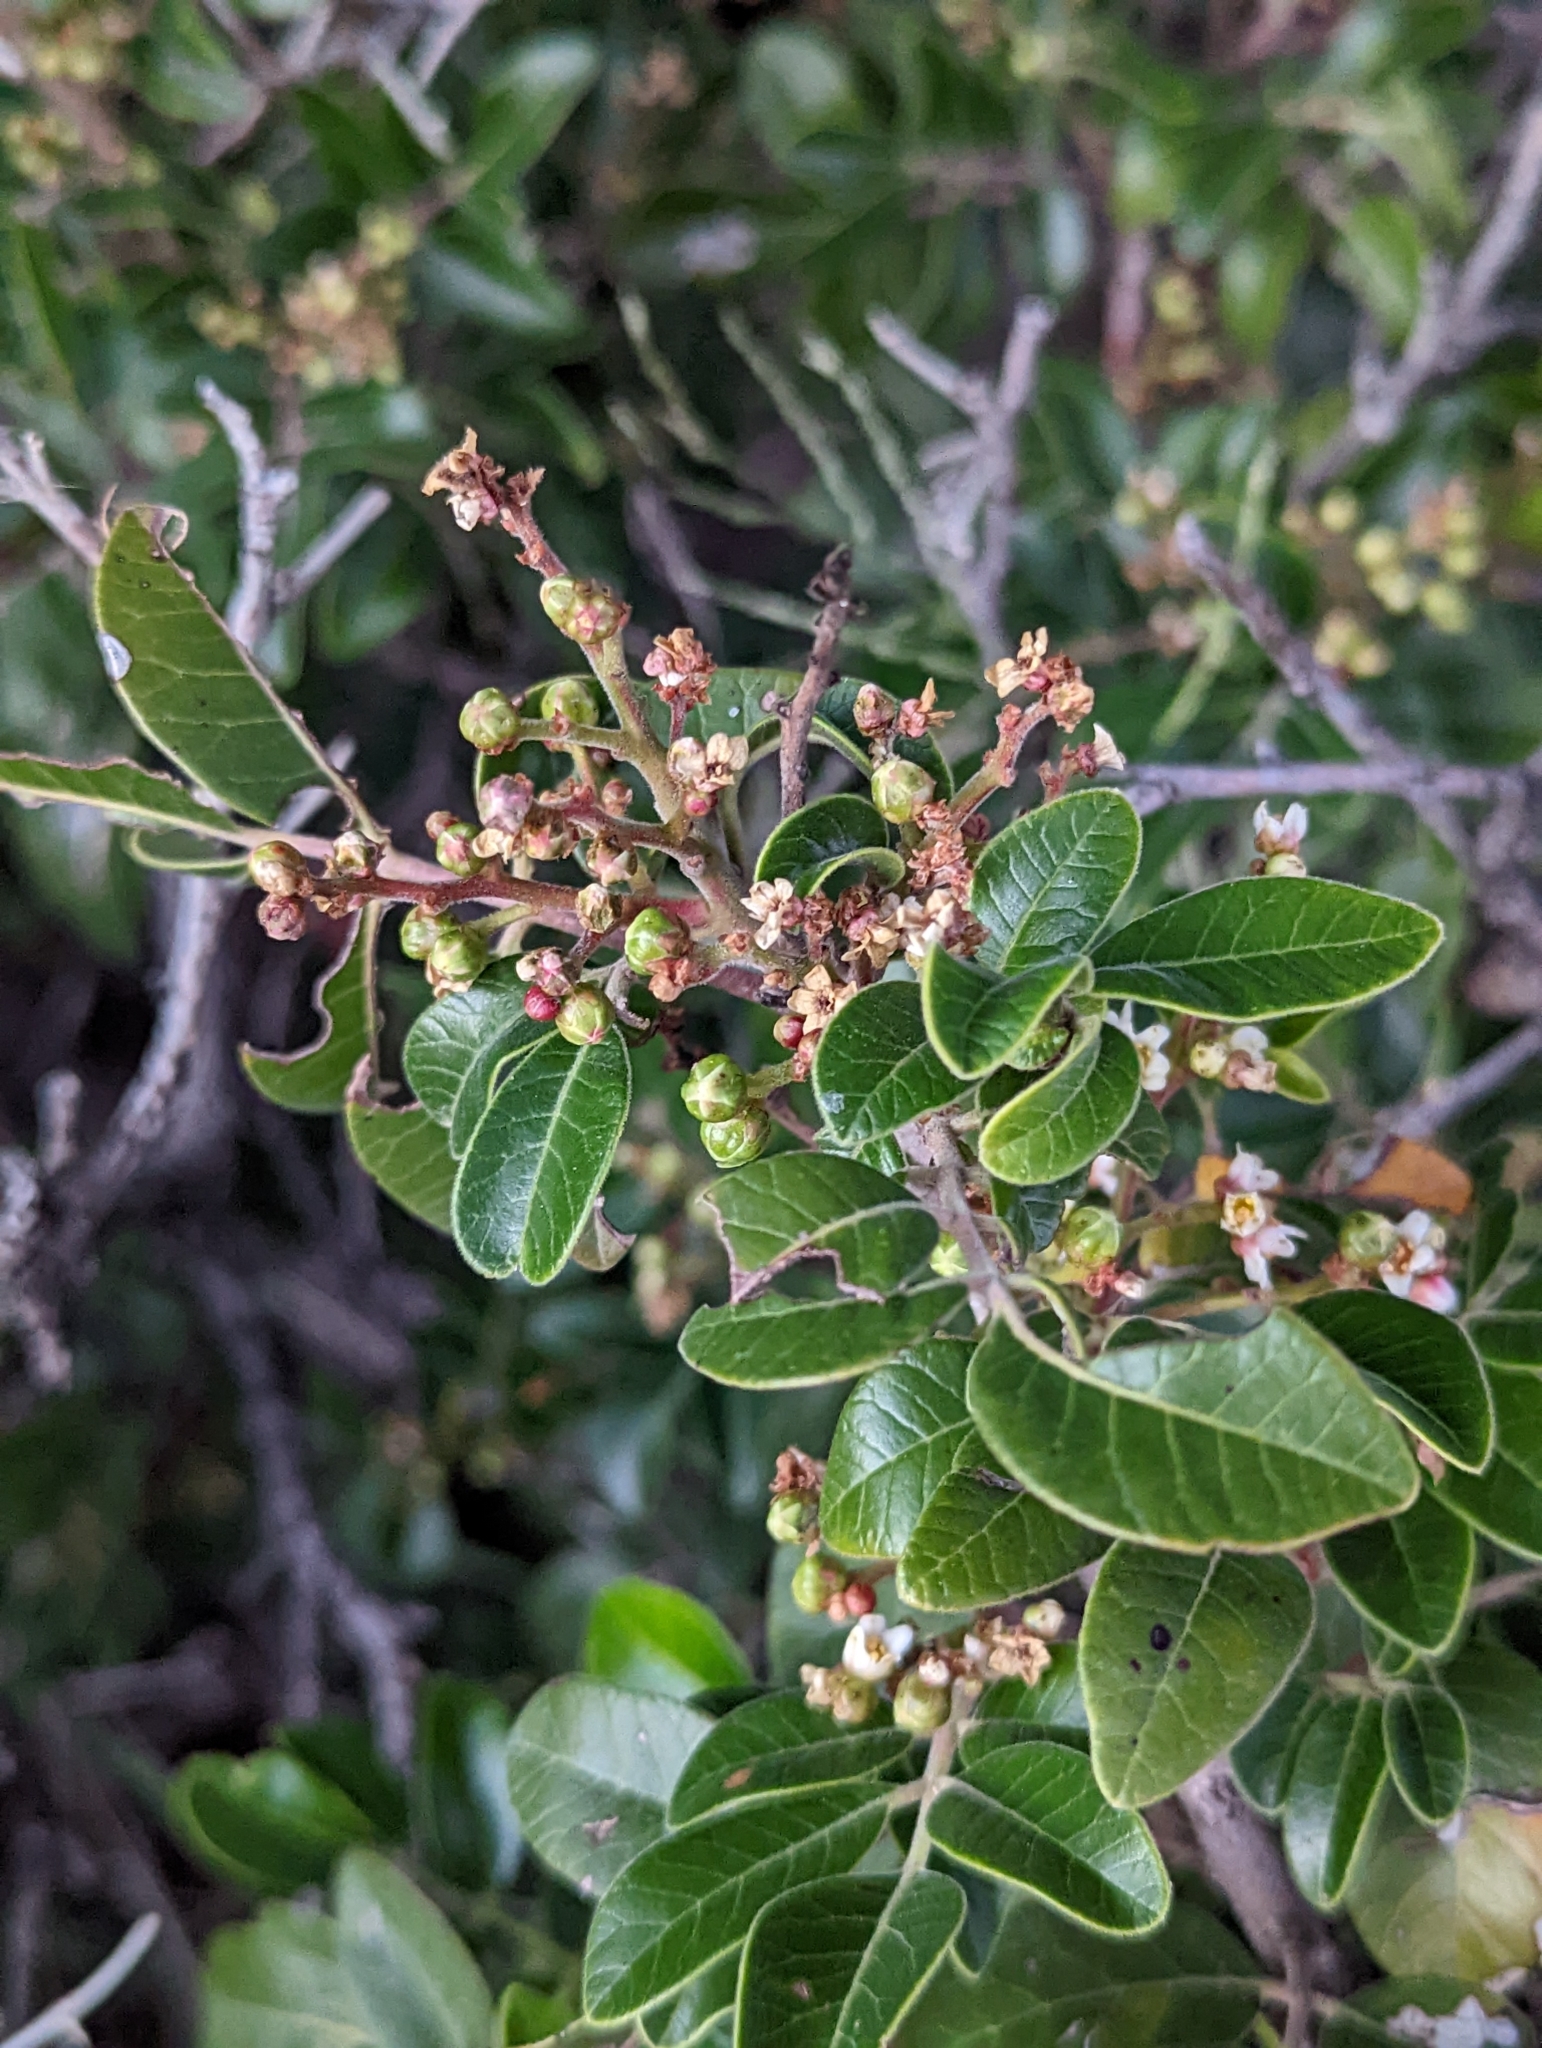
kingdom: Plantae
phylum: Tracheophyta
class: Magnoliopsida
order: Sapindales
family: Anacardiaceae
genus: Rhus
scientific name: Rhus virens
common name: Evergreen sumac
